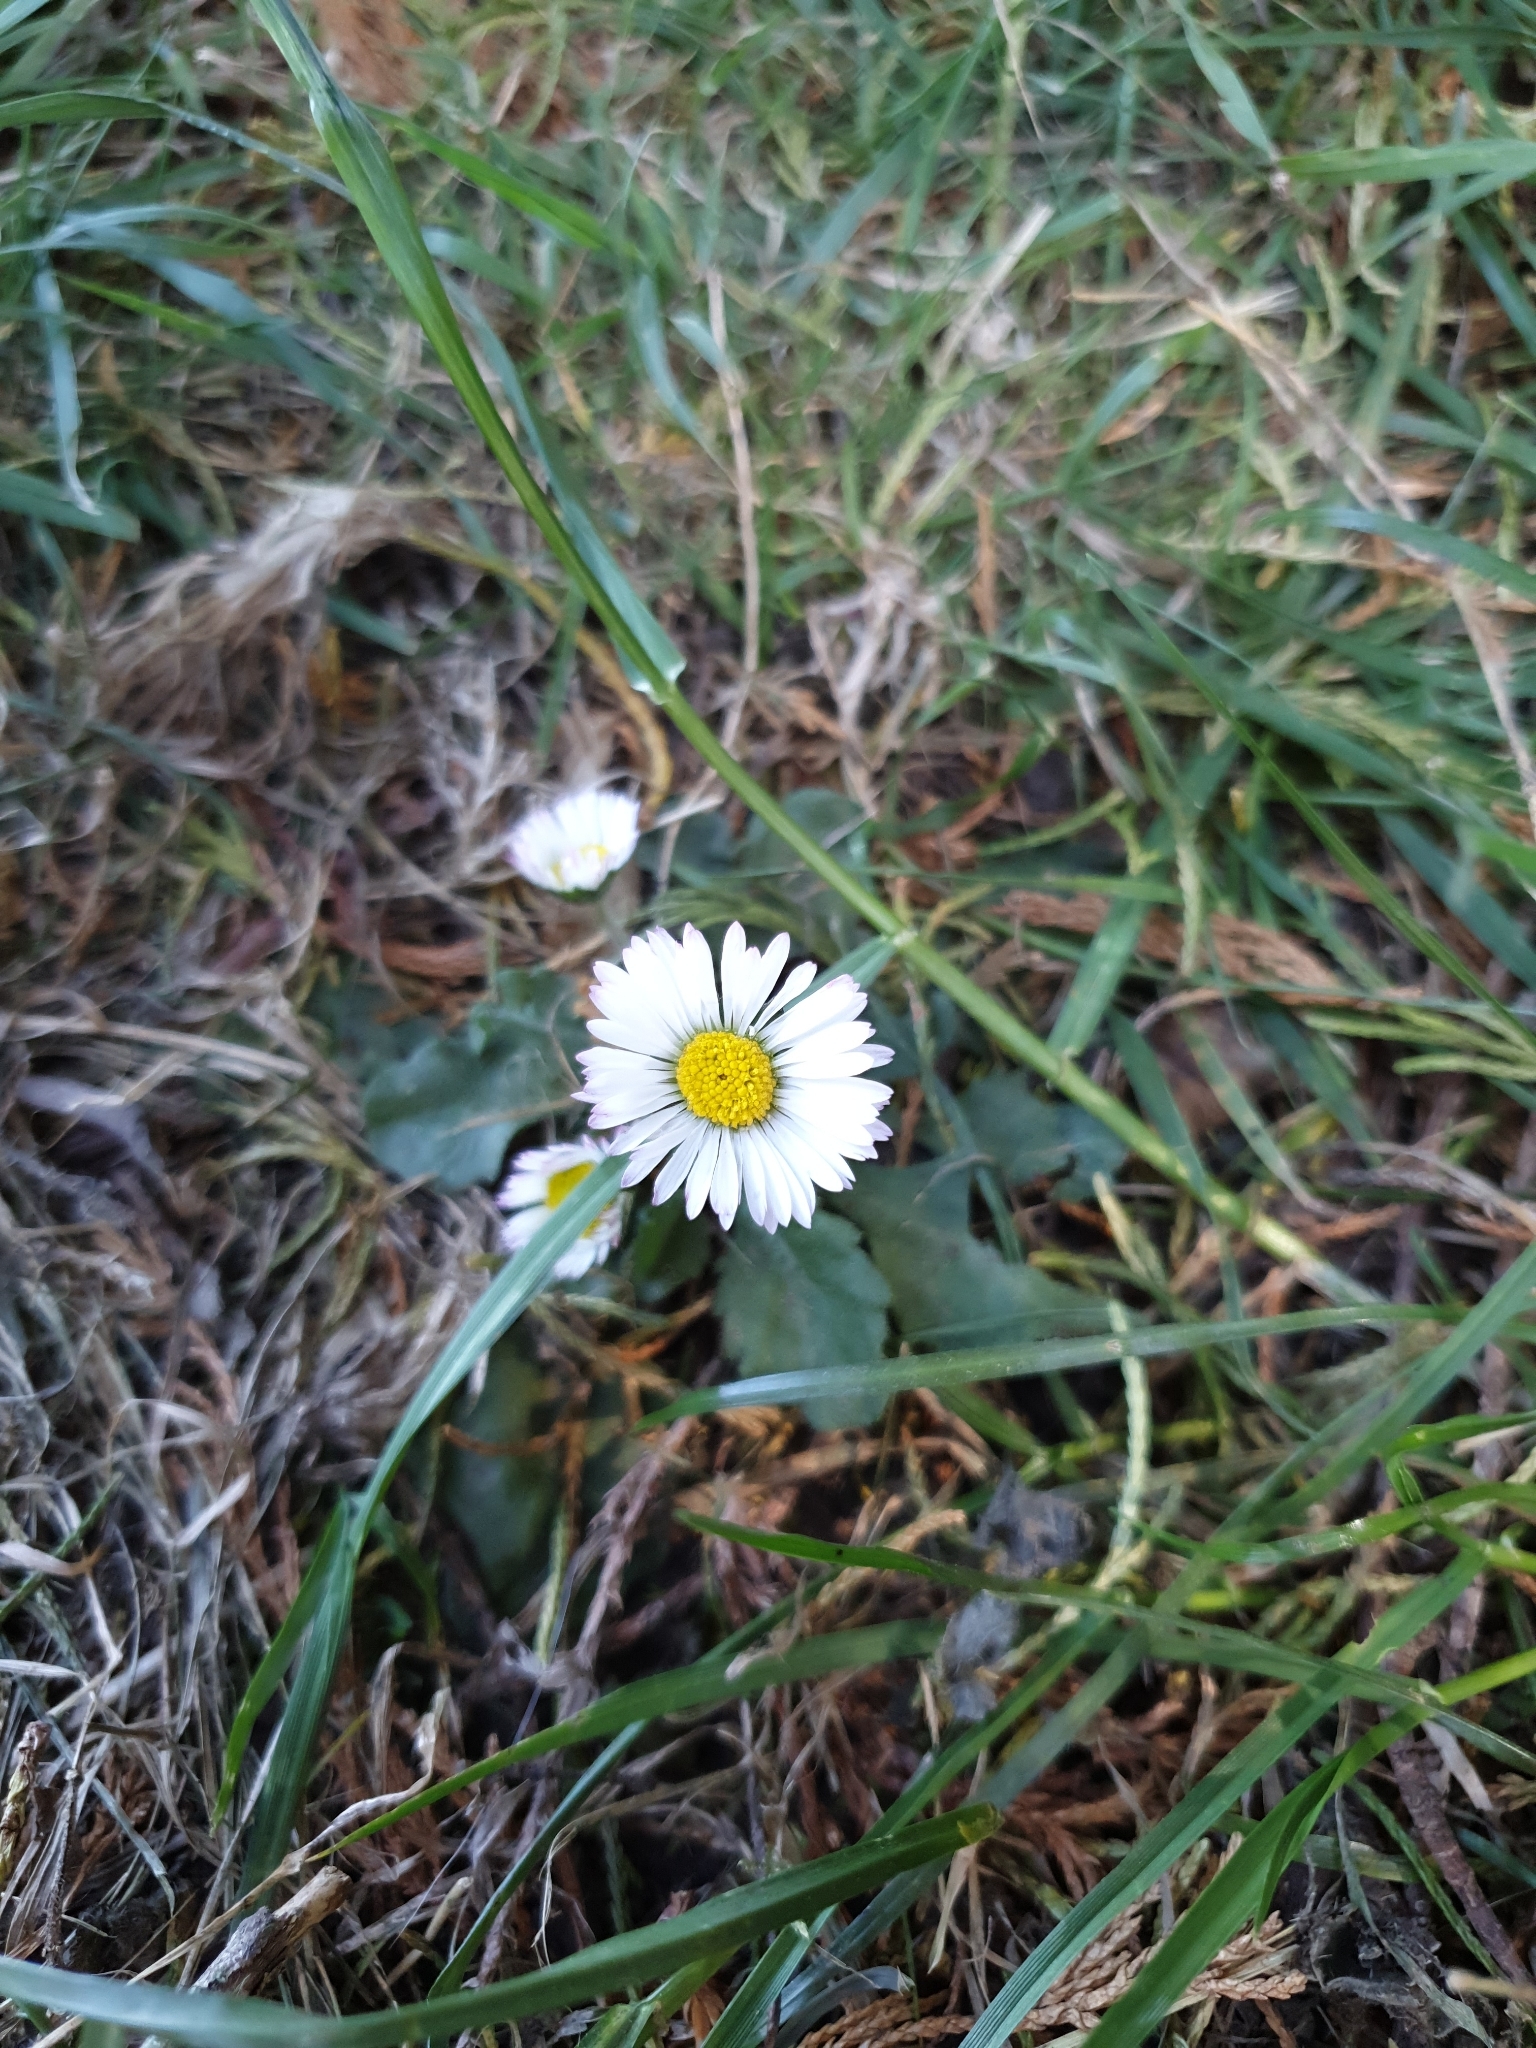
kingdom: Plantae
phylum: Tracheophyta
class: Magnoliopsida
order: Asterales
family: Asteraceae
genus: Bellis
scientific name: Bellis perennis
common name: Lawndaisy
